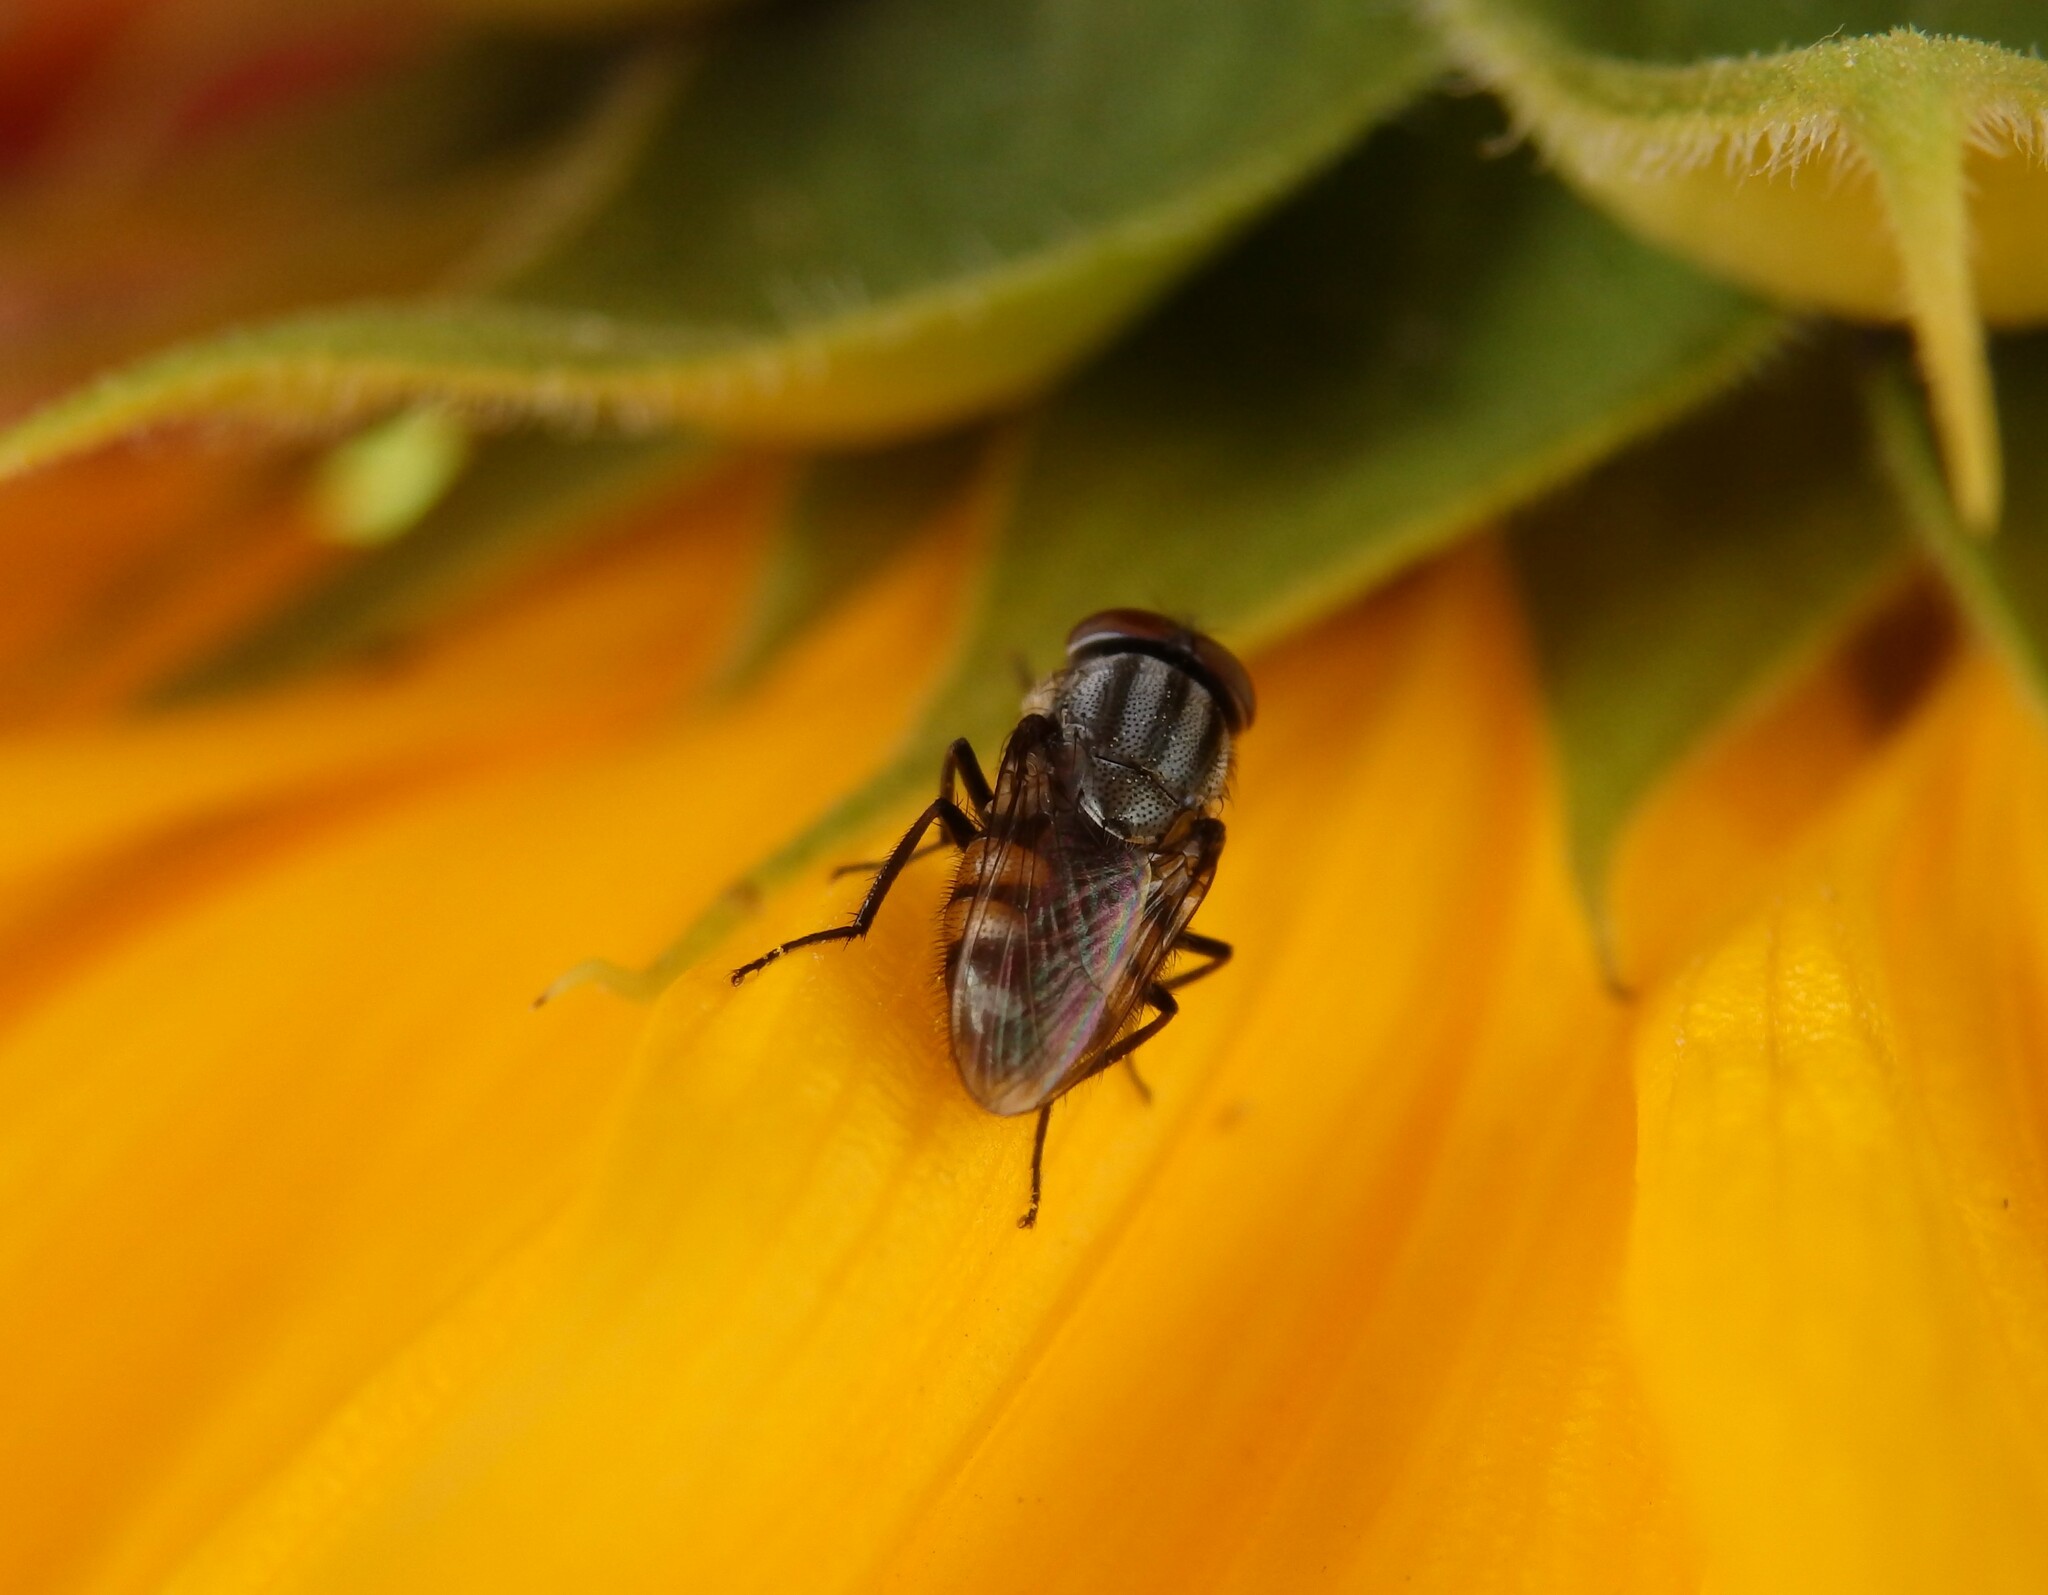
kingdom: Animalia
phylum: Arthropoda
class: Insecta
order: Diptera
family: Calliphoridae
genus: Stomorhina
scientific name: Stomorhina lunata
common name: Locust blowfly
